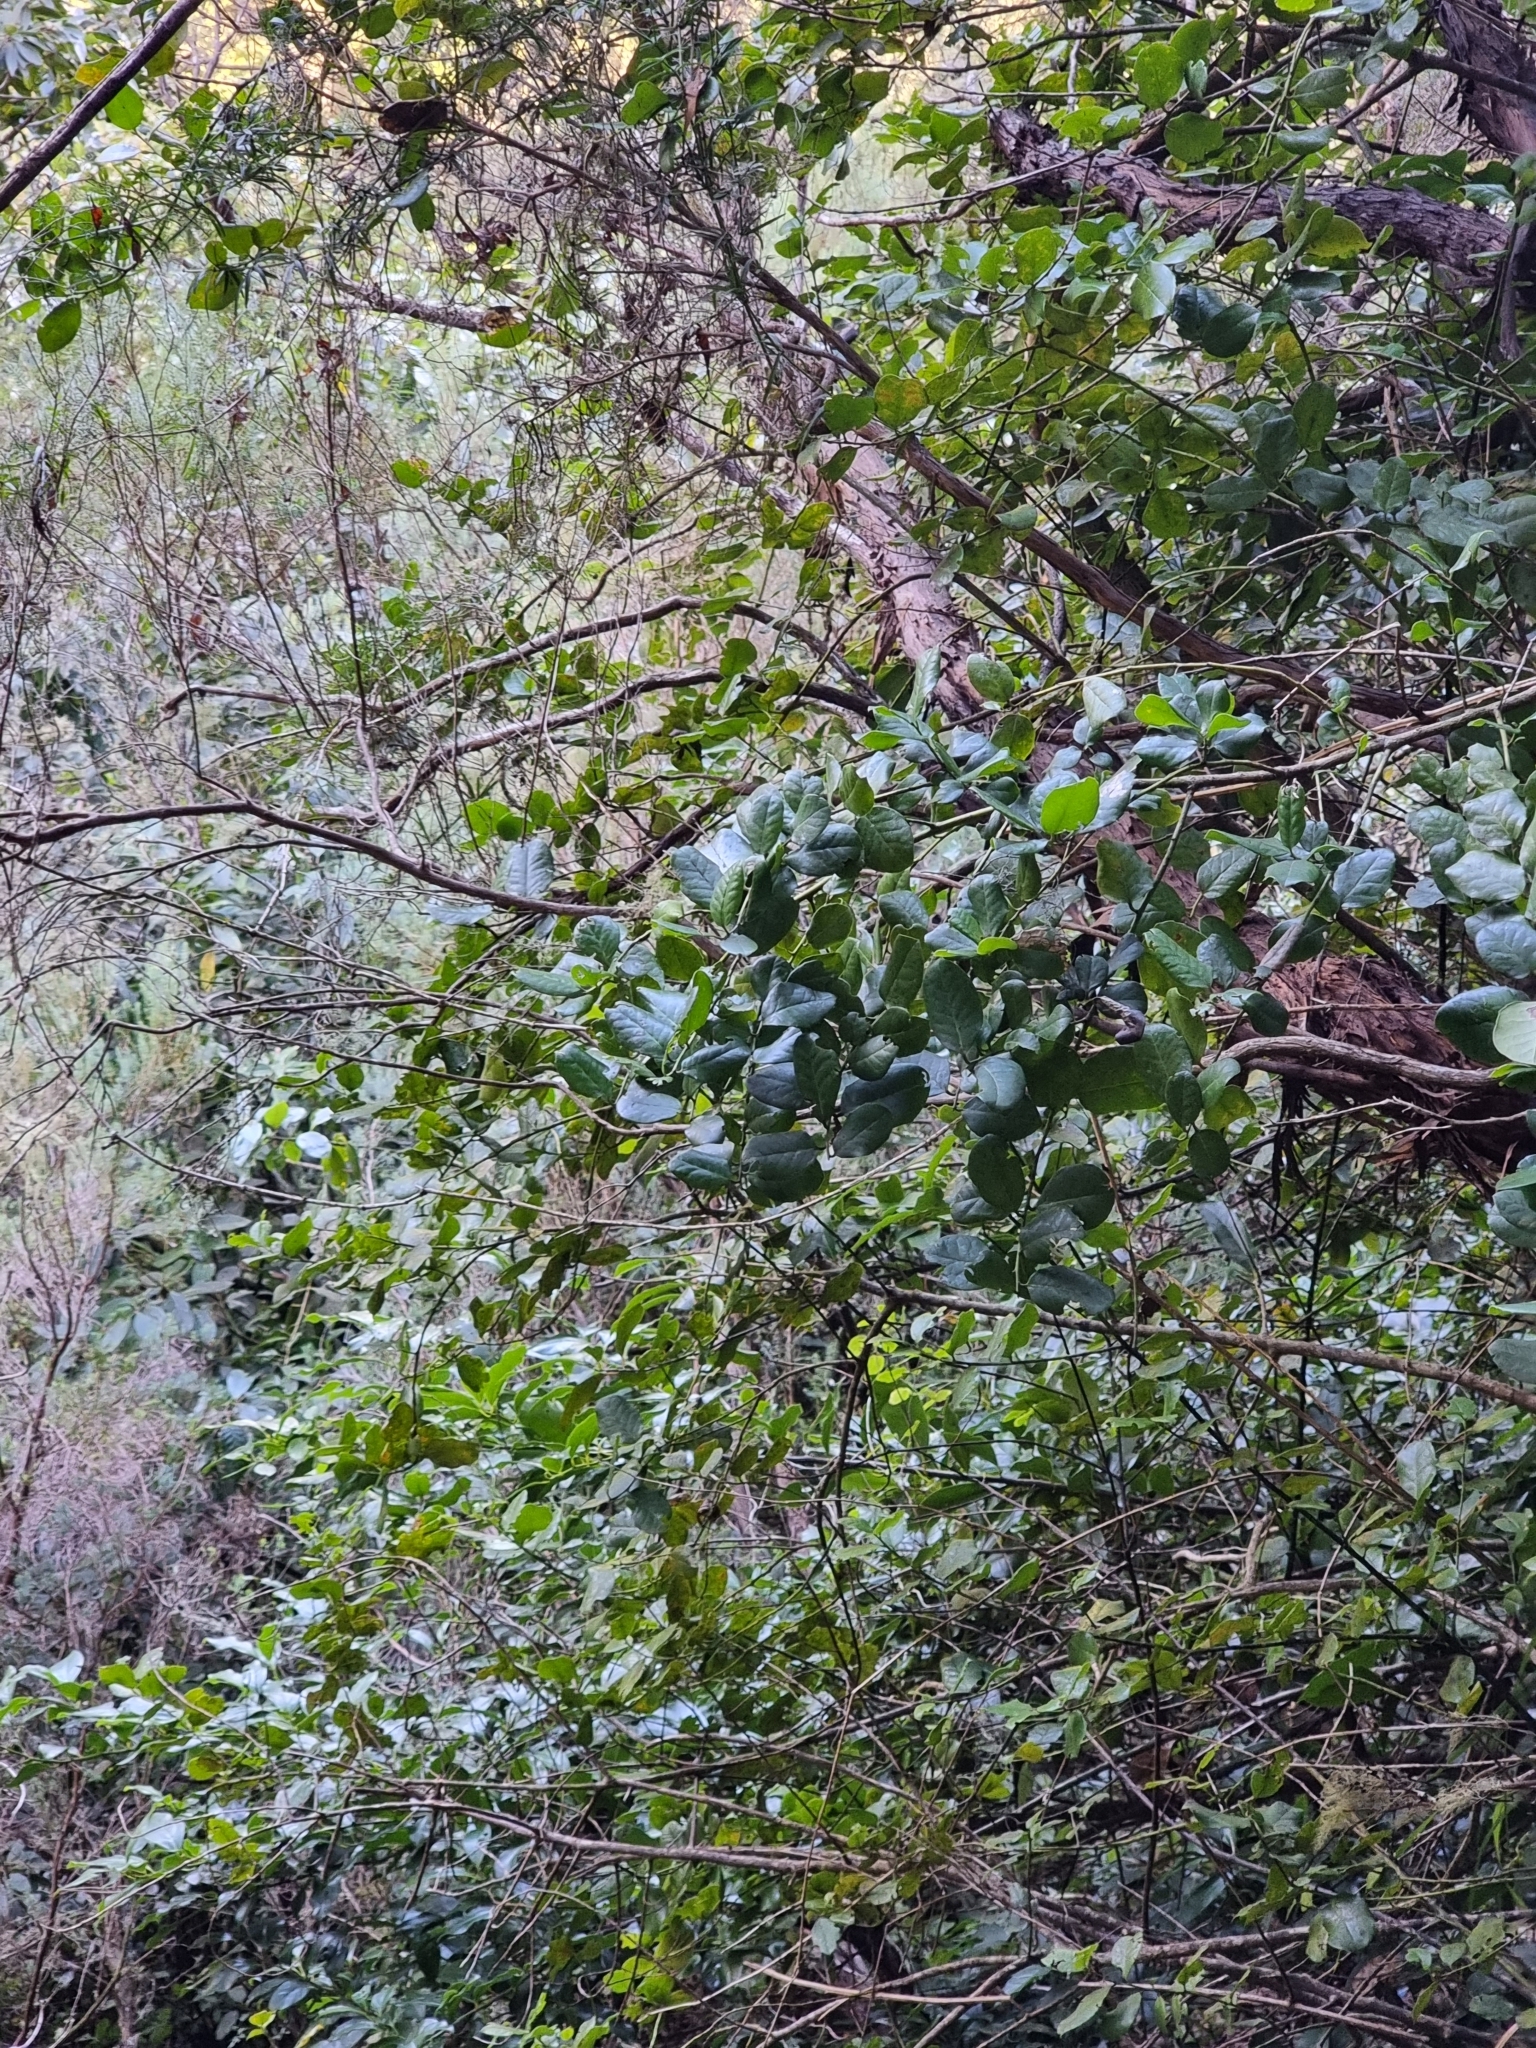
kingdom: Plantae
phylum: Tracheophyta
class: Magnoliopsida
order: Aquifoliales
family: Aquifoliaceae
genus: Ilex
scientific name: Ilex perado
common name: Madeira holly
